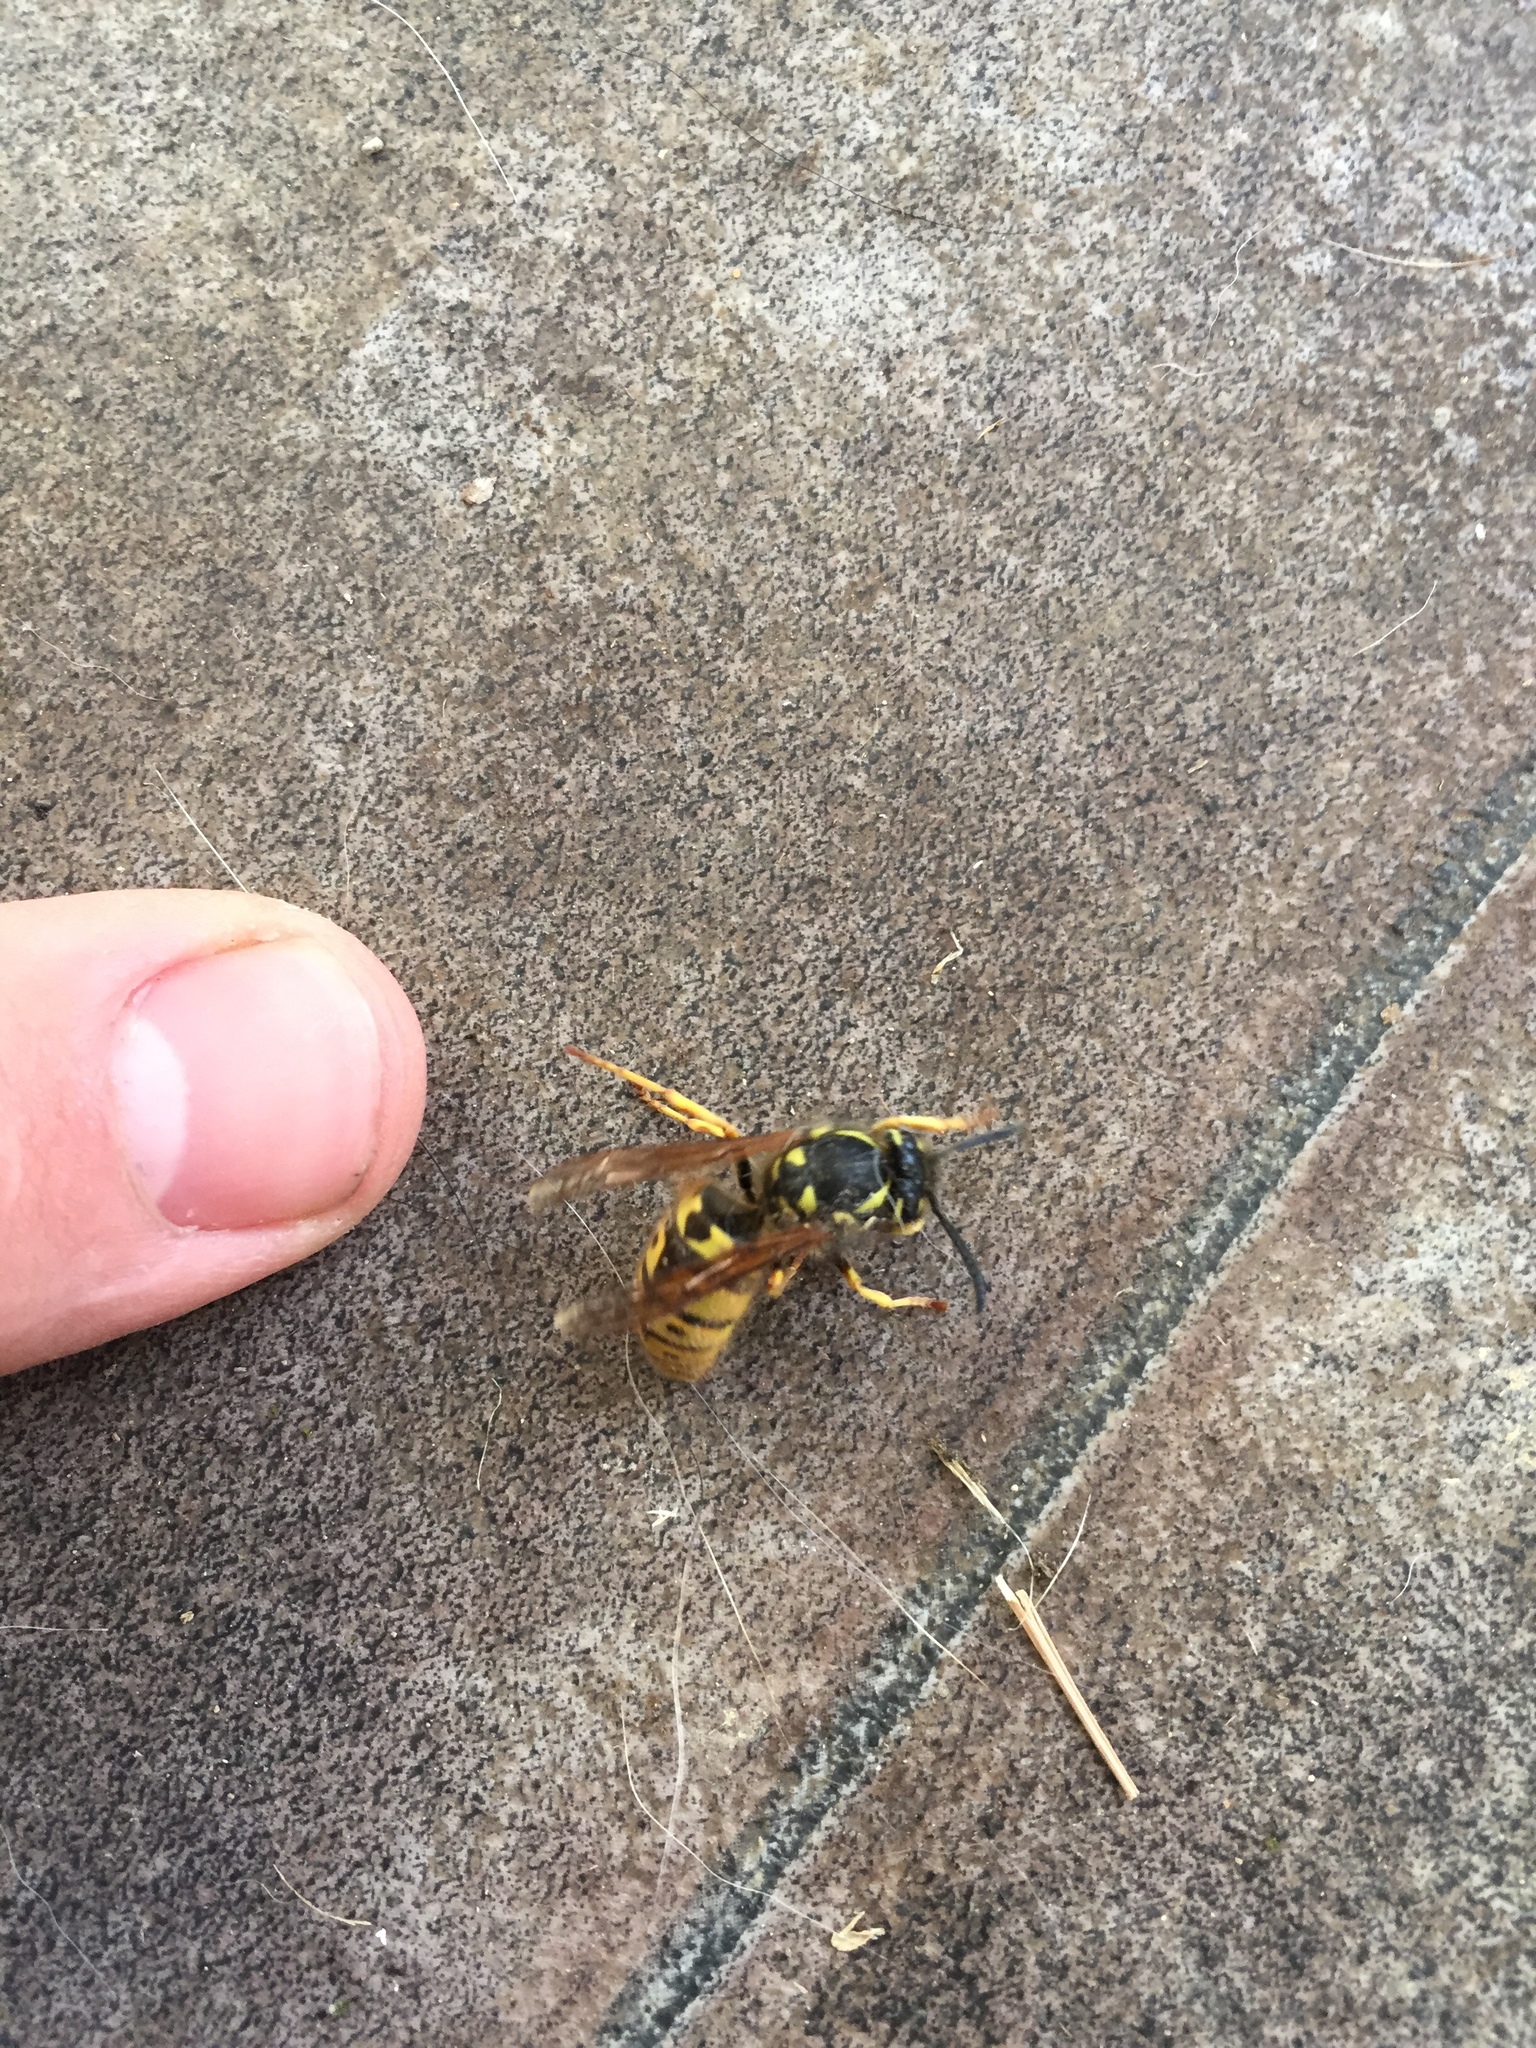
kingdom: Animalia
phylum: Arthropoda
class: Insecta
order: Hymenoptera
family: Vespidae
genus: Vespula
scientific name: Vespula germanica
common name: German wasp
